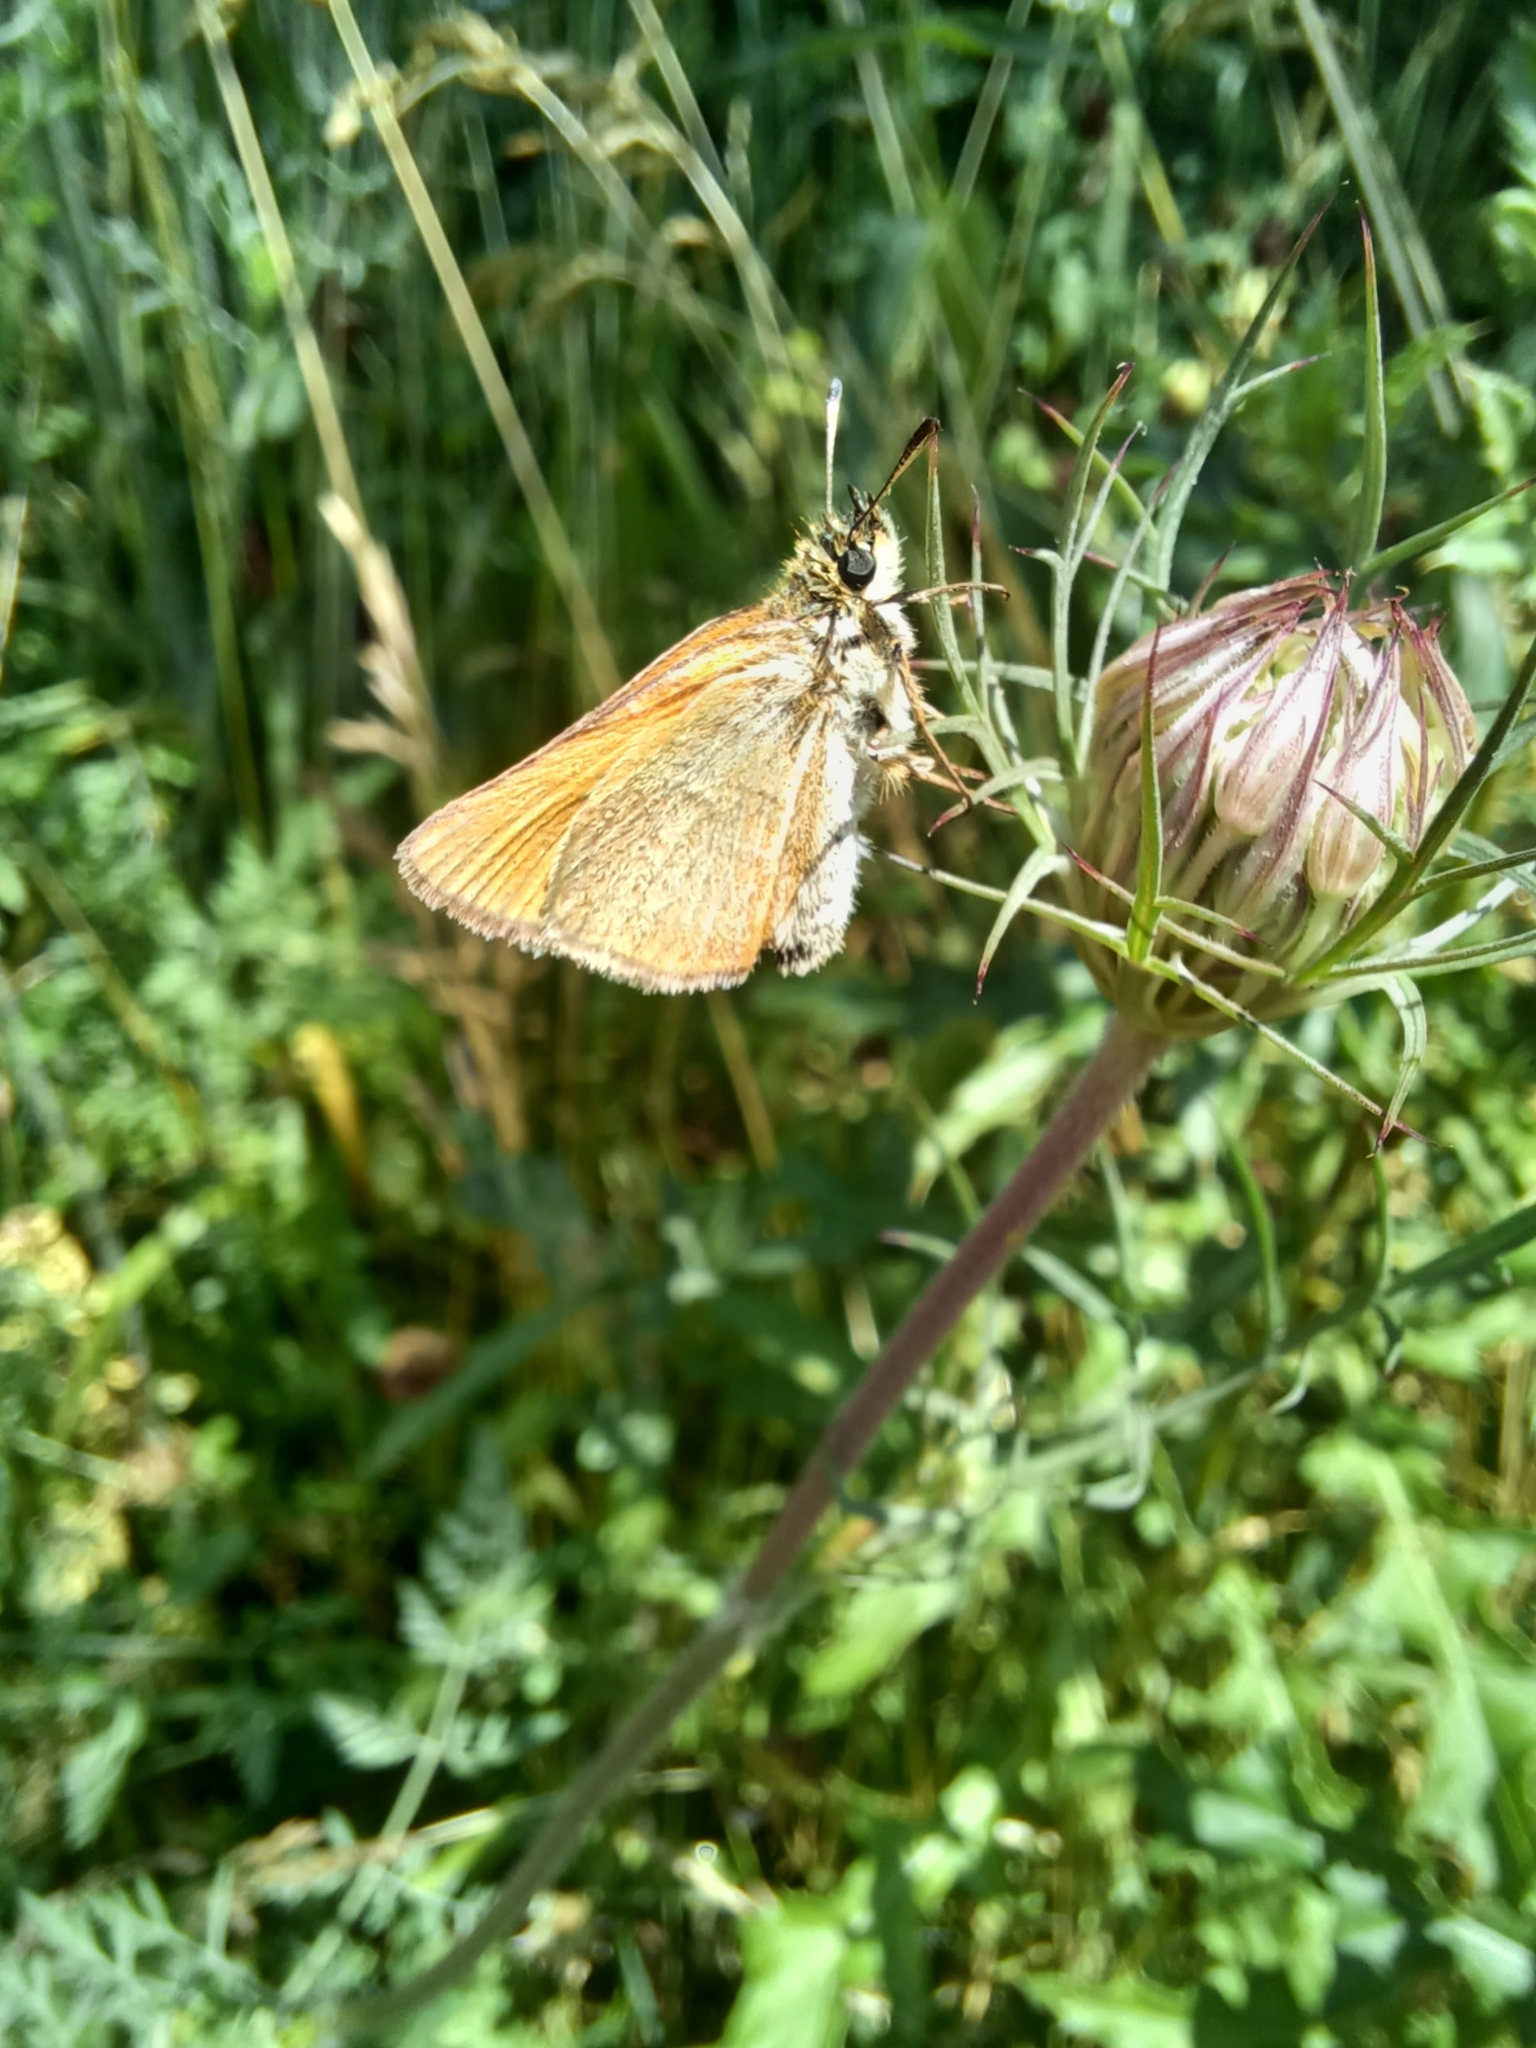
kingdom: Animalia
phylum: Arthropoda
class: Insecta
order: Lepidoptera
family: Hesperiidae
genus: Thymelicus
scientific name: Thymelicus lineola
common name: Essex skipper
